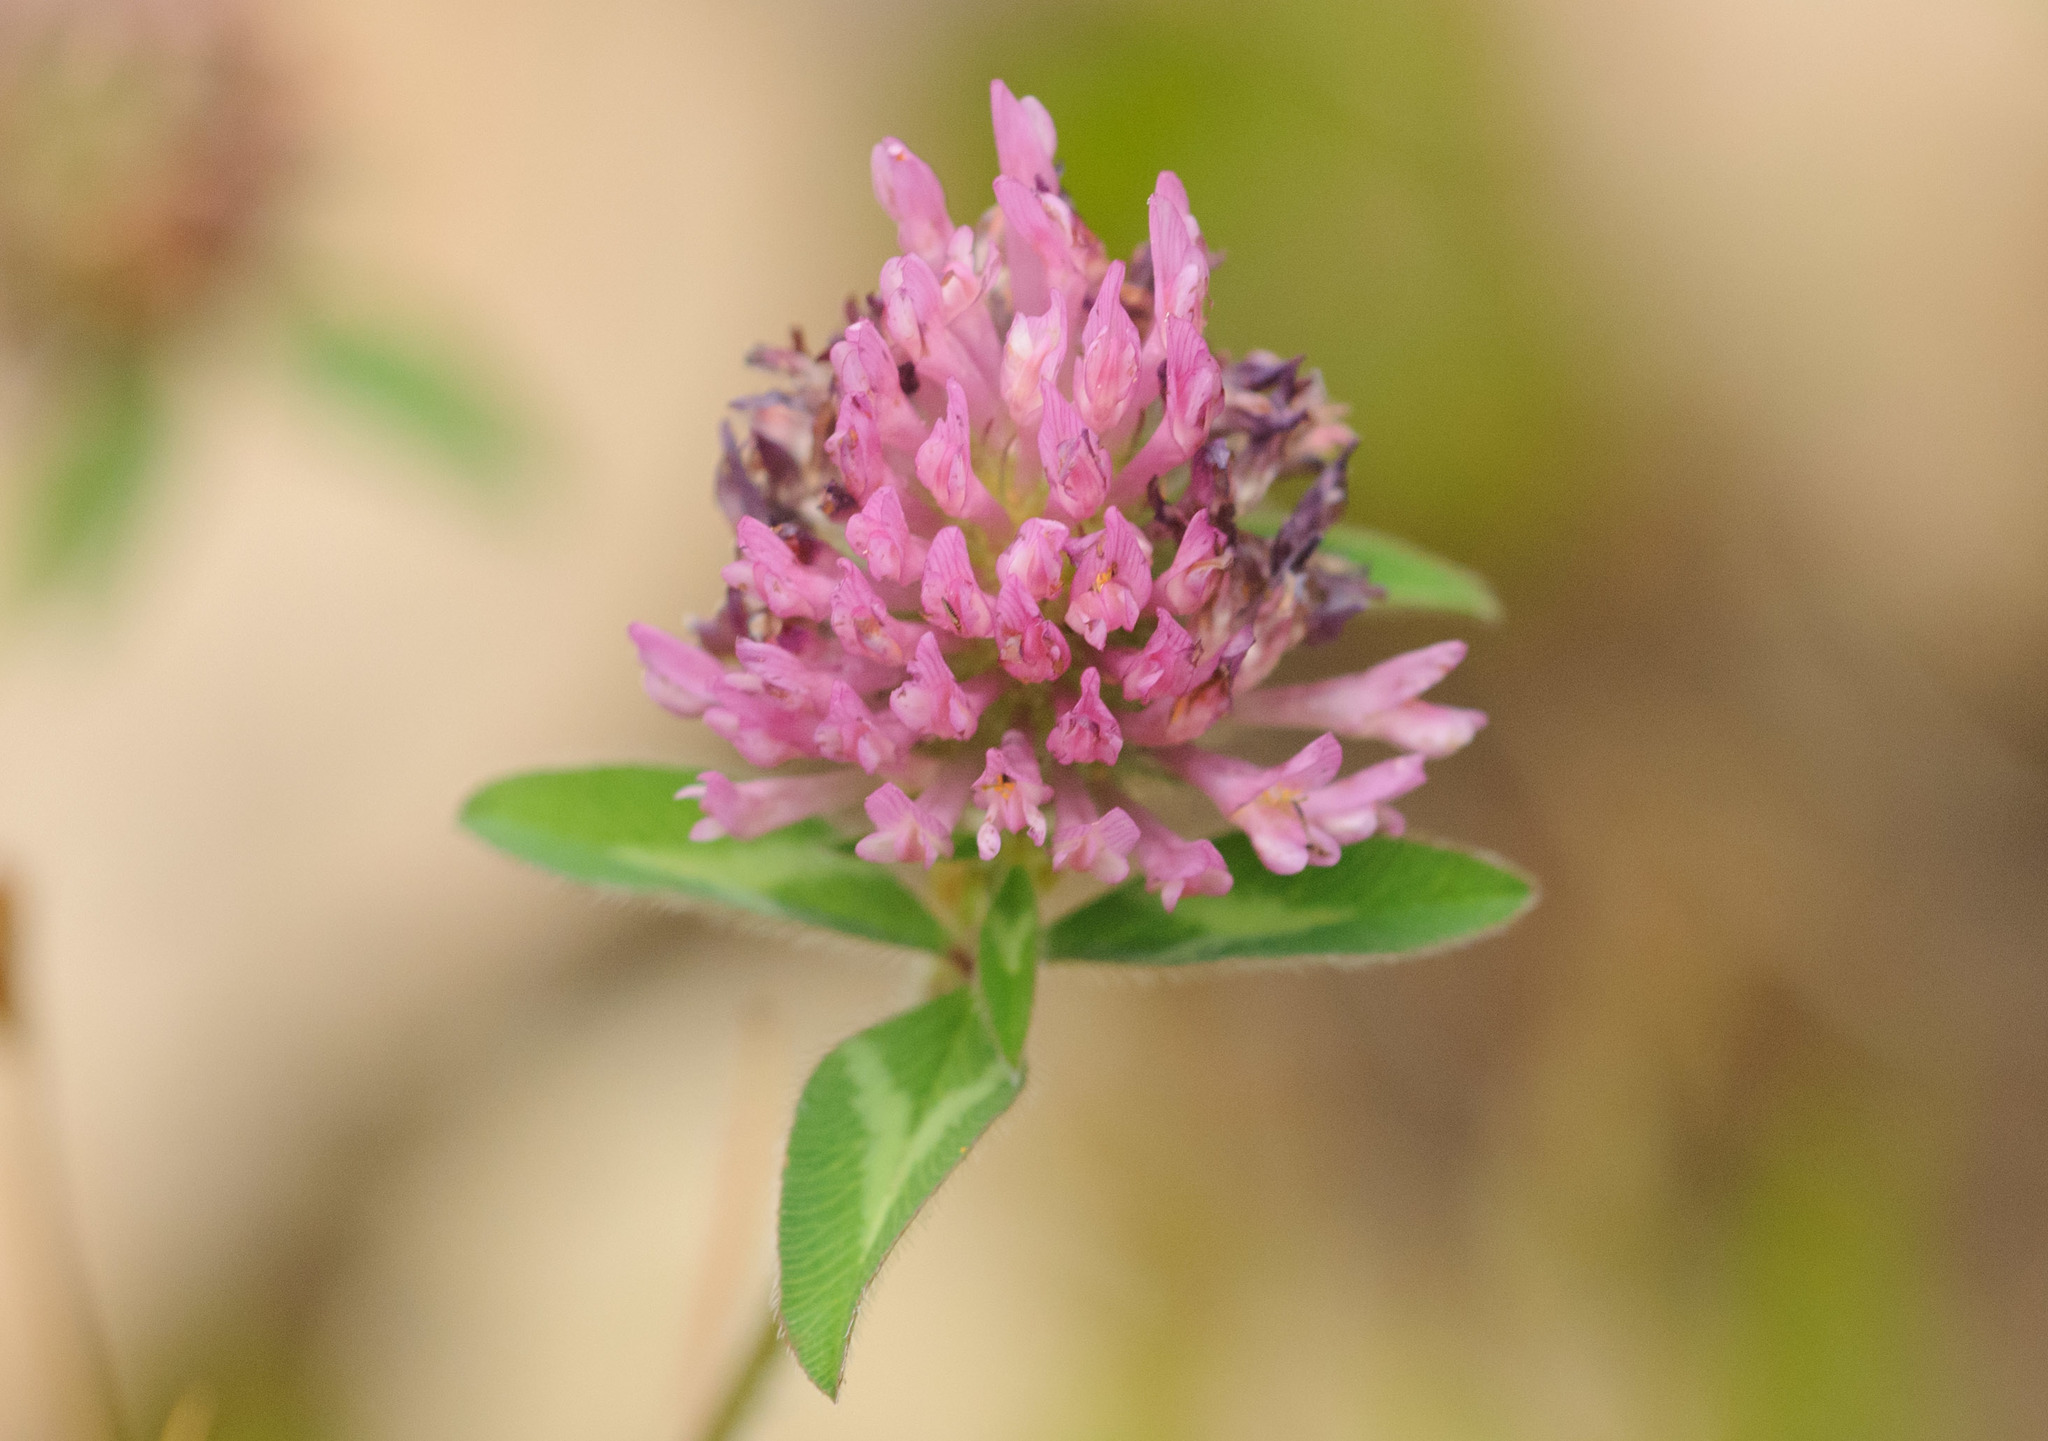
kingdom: Plantae
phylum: Tracheophyta
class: Magnoliopsida
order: Fabales
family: Fabaceae
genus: Trifolium
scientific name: Trifolium pratense
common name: Red clover
